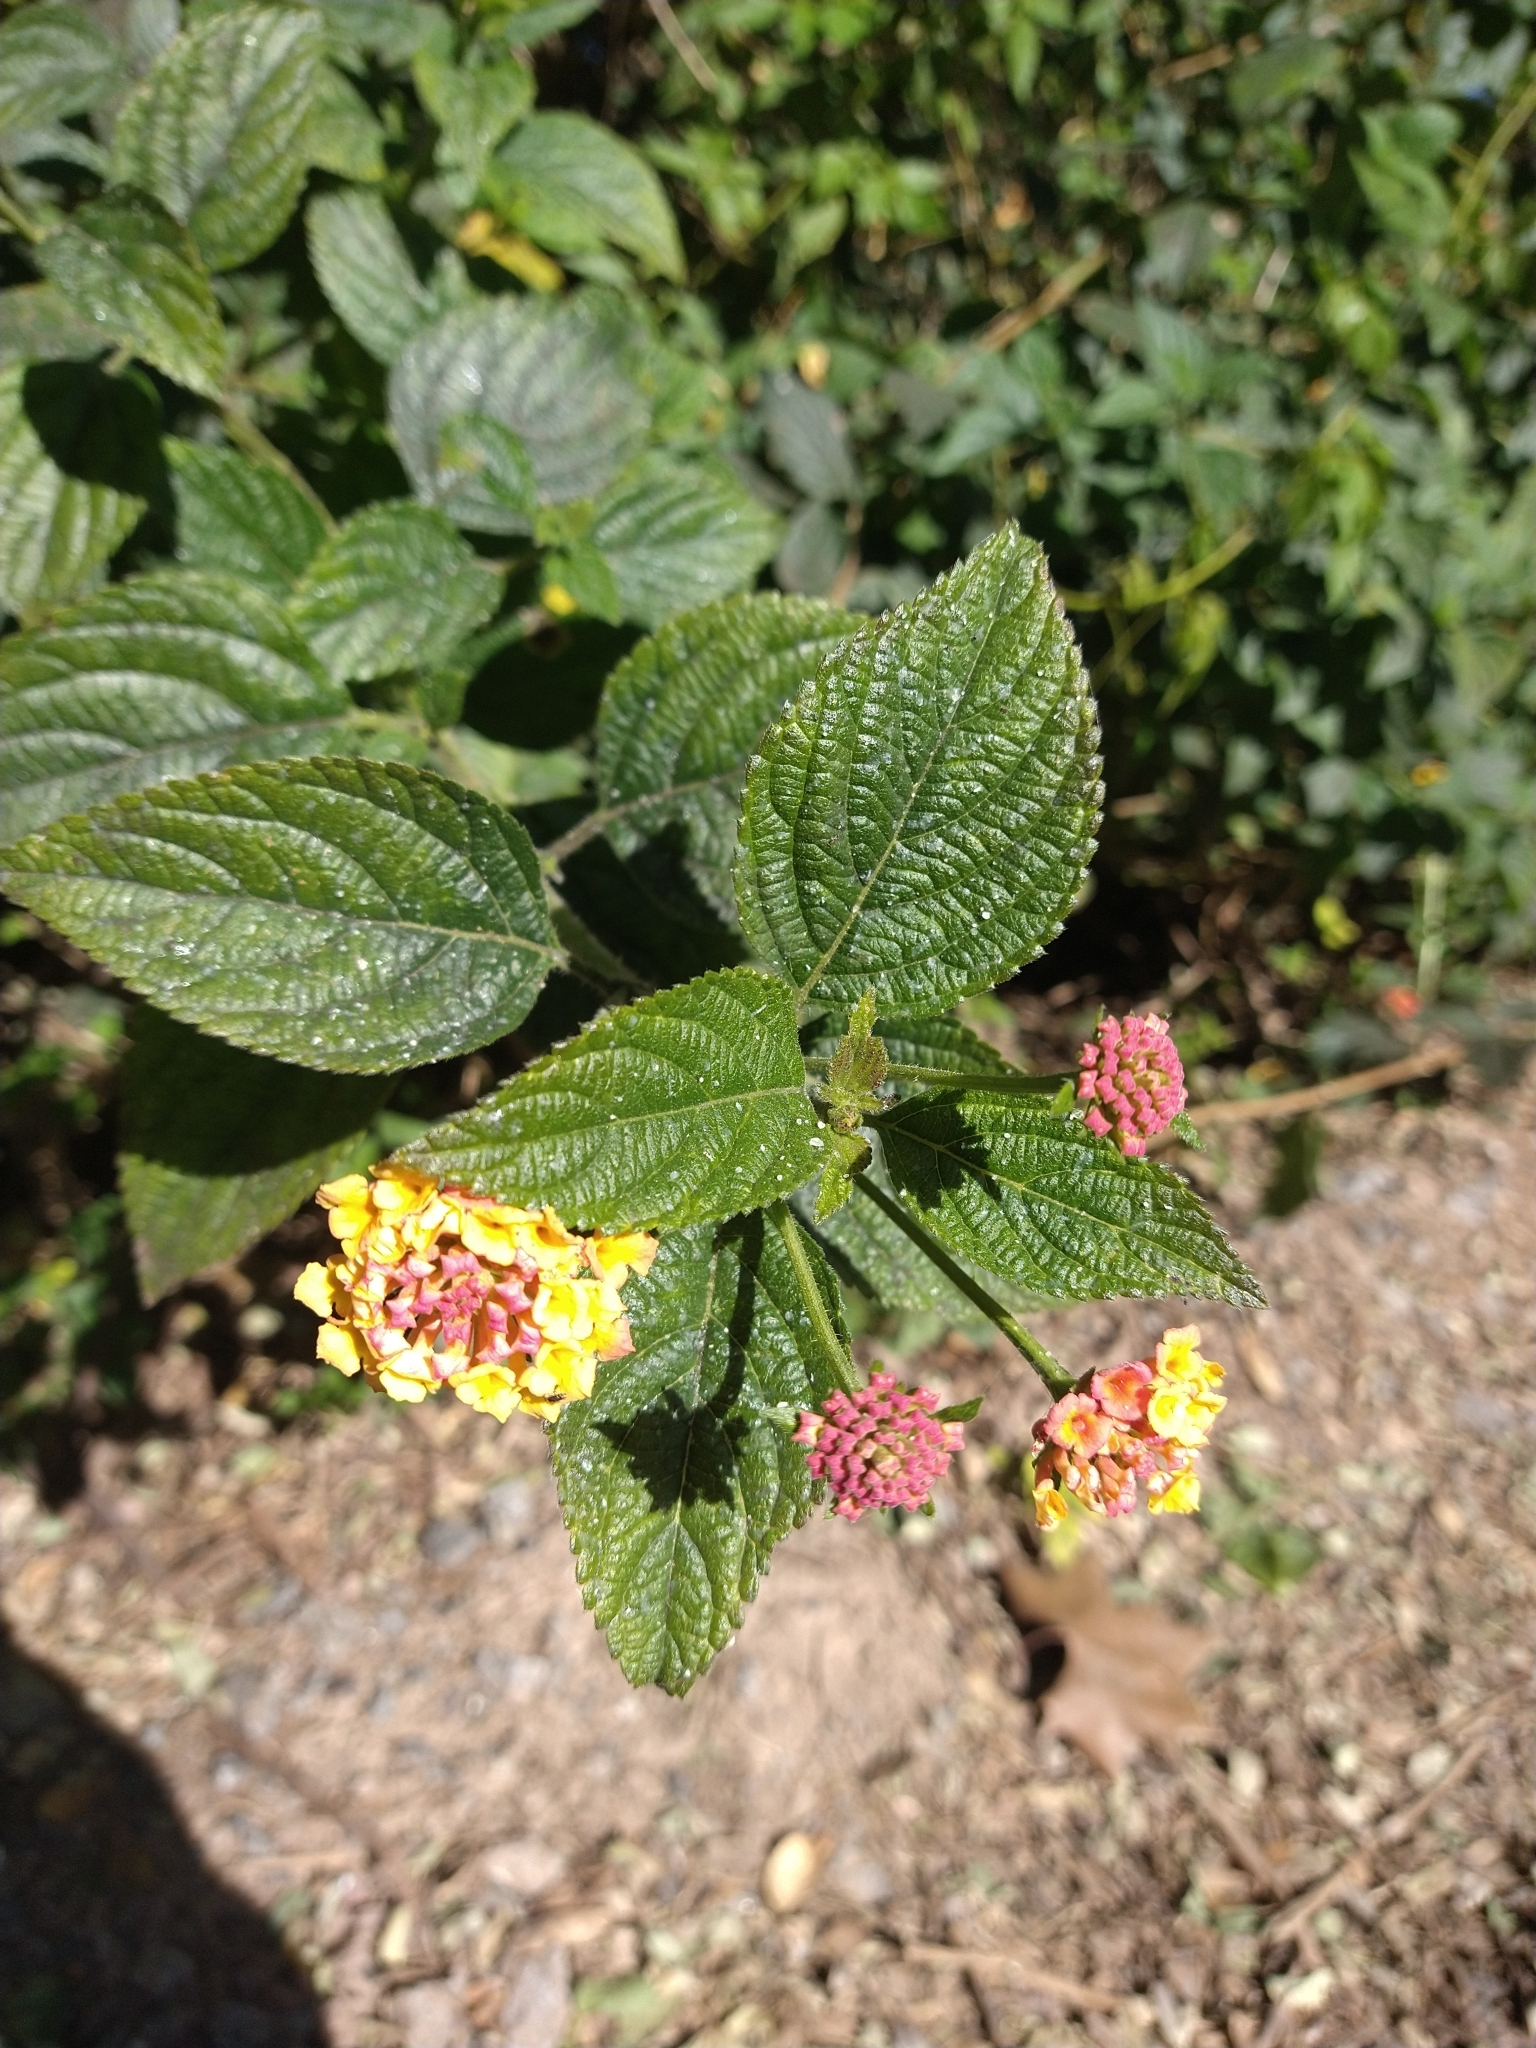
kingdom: Plantae
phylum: Tracheophyta
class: Magnoliopsida
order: Lamiales
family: Verbenaceae
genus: Lantana
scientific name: Lantana camara
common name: Lantana
